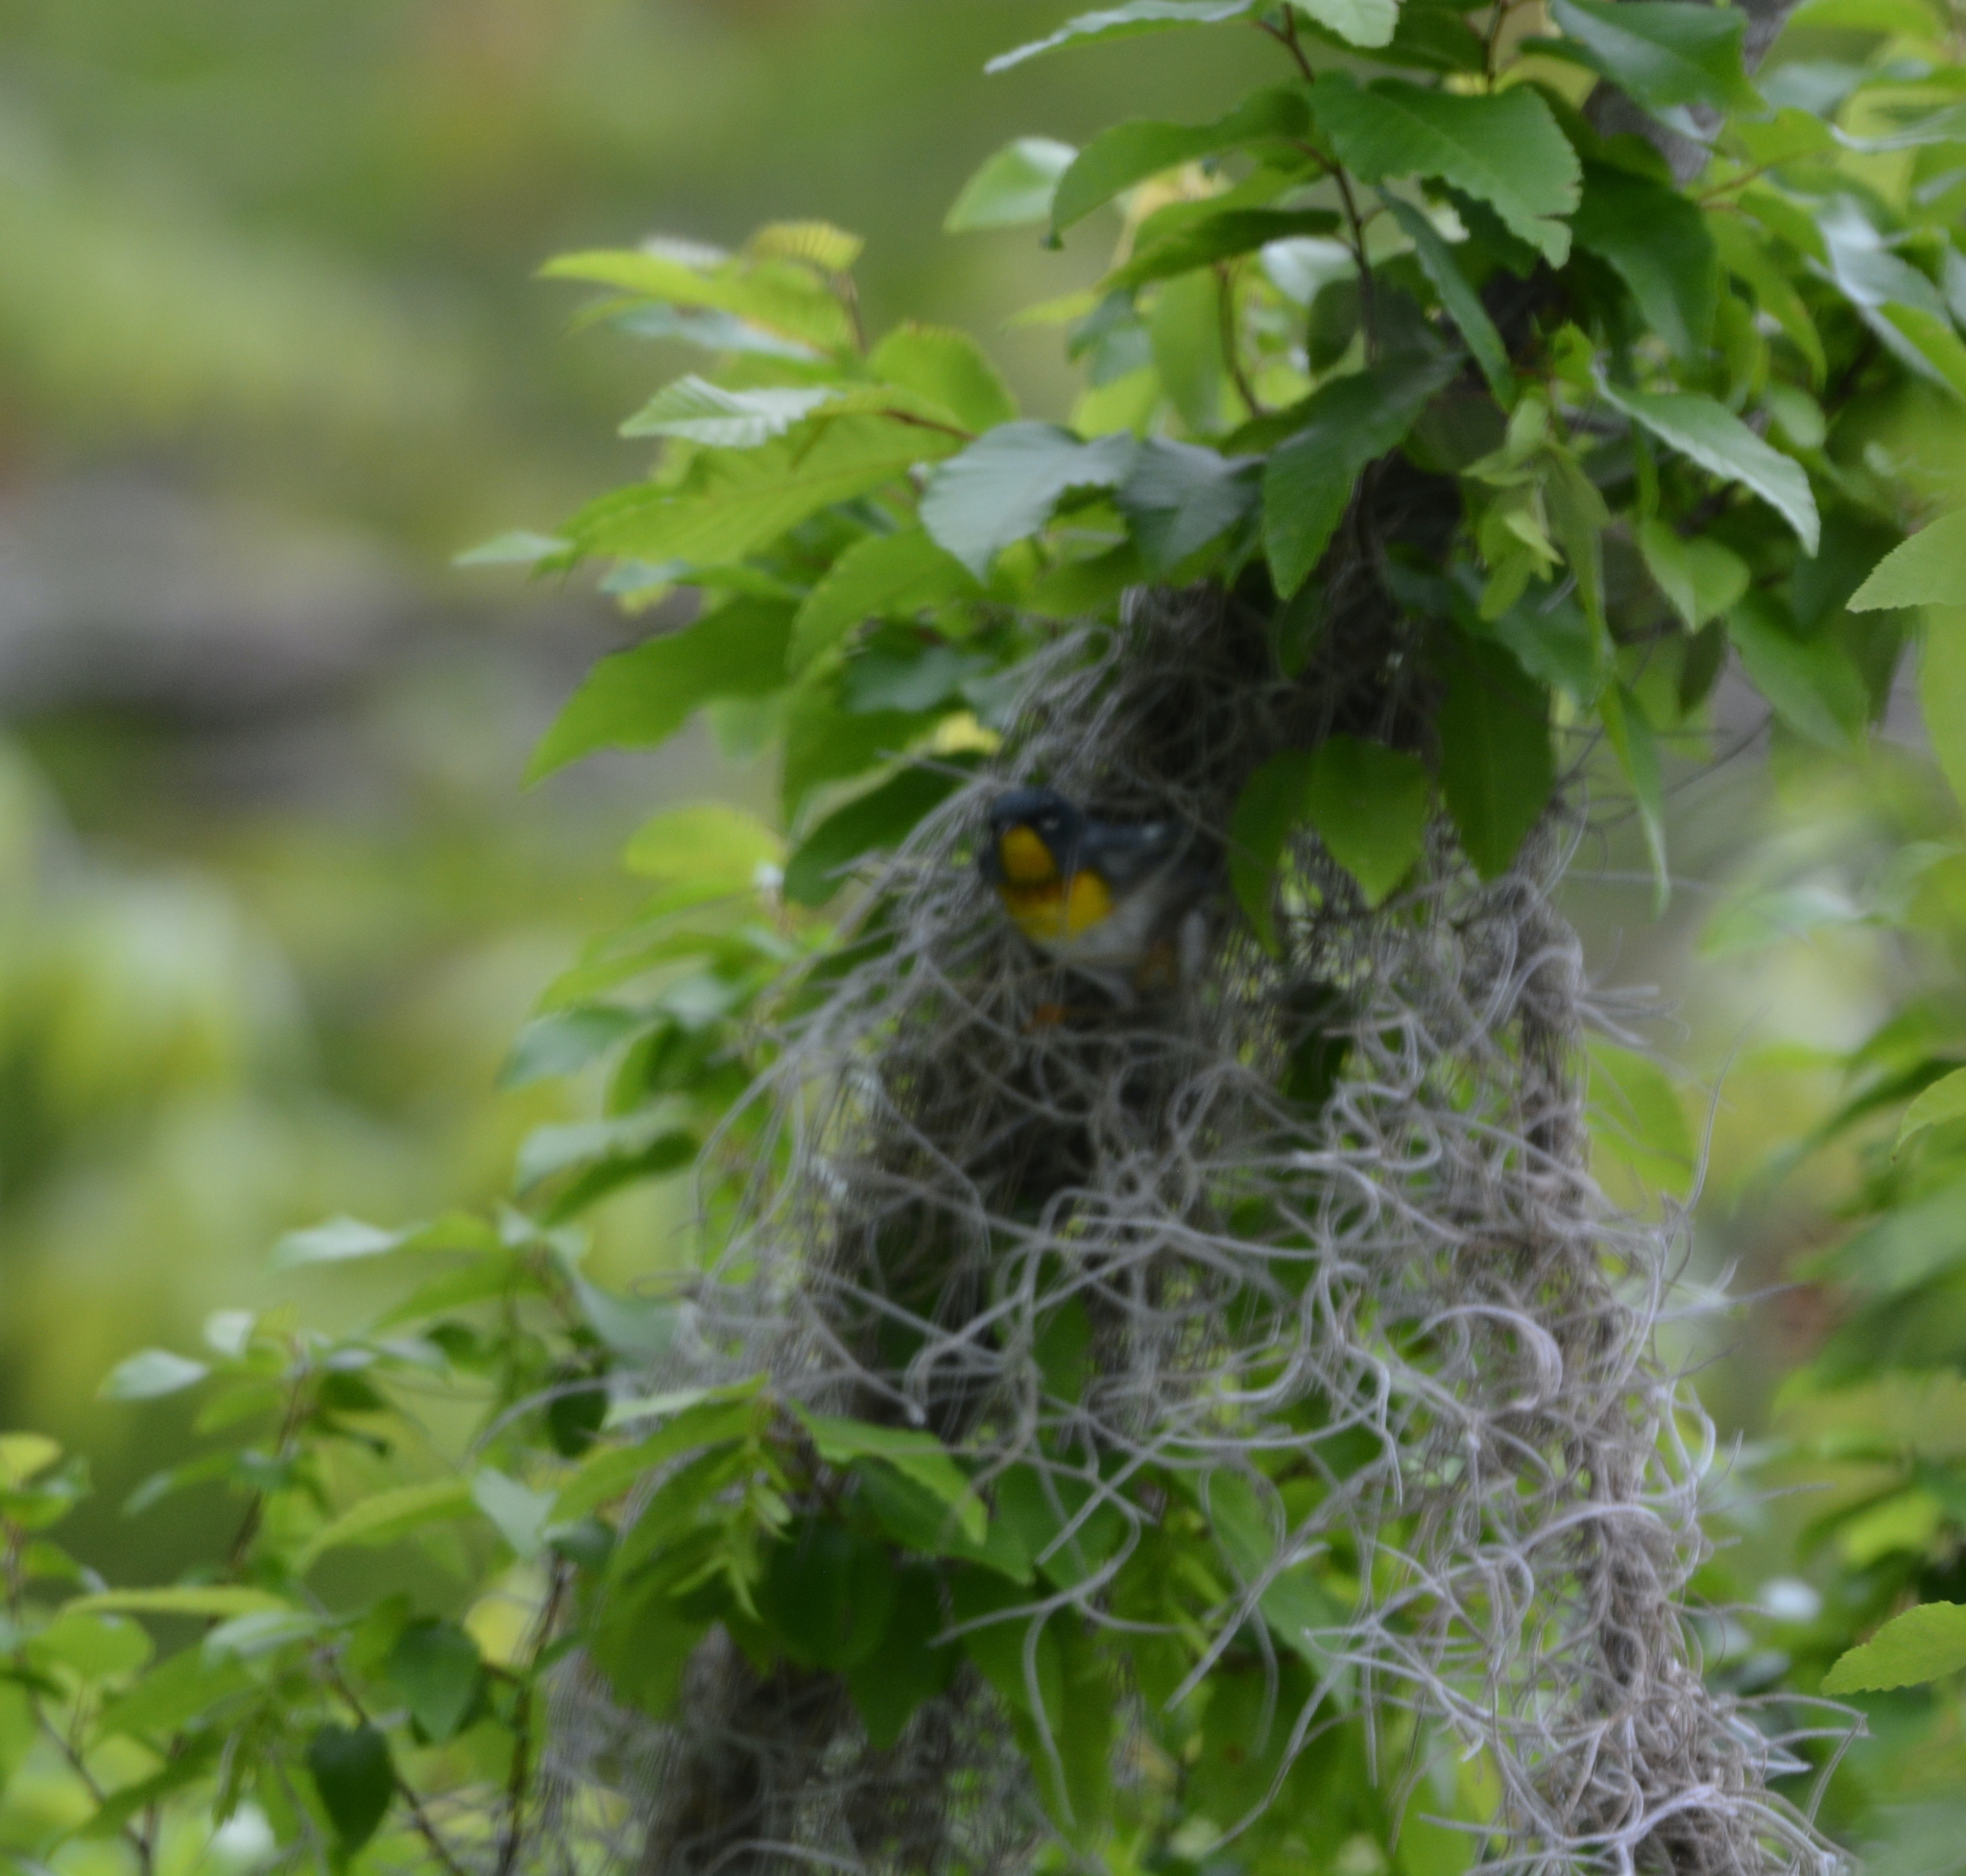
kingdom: Animalia
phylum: Chordata
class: Aves
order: Passeriformes
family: Parulidae
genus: Setophaga
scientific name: Setophaga americana
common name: Northern parula
